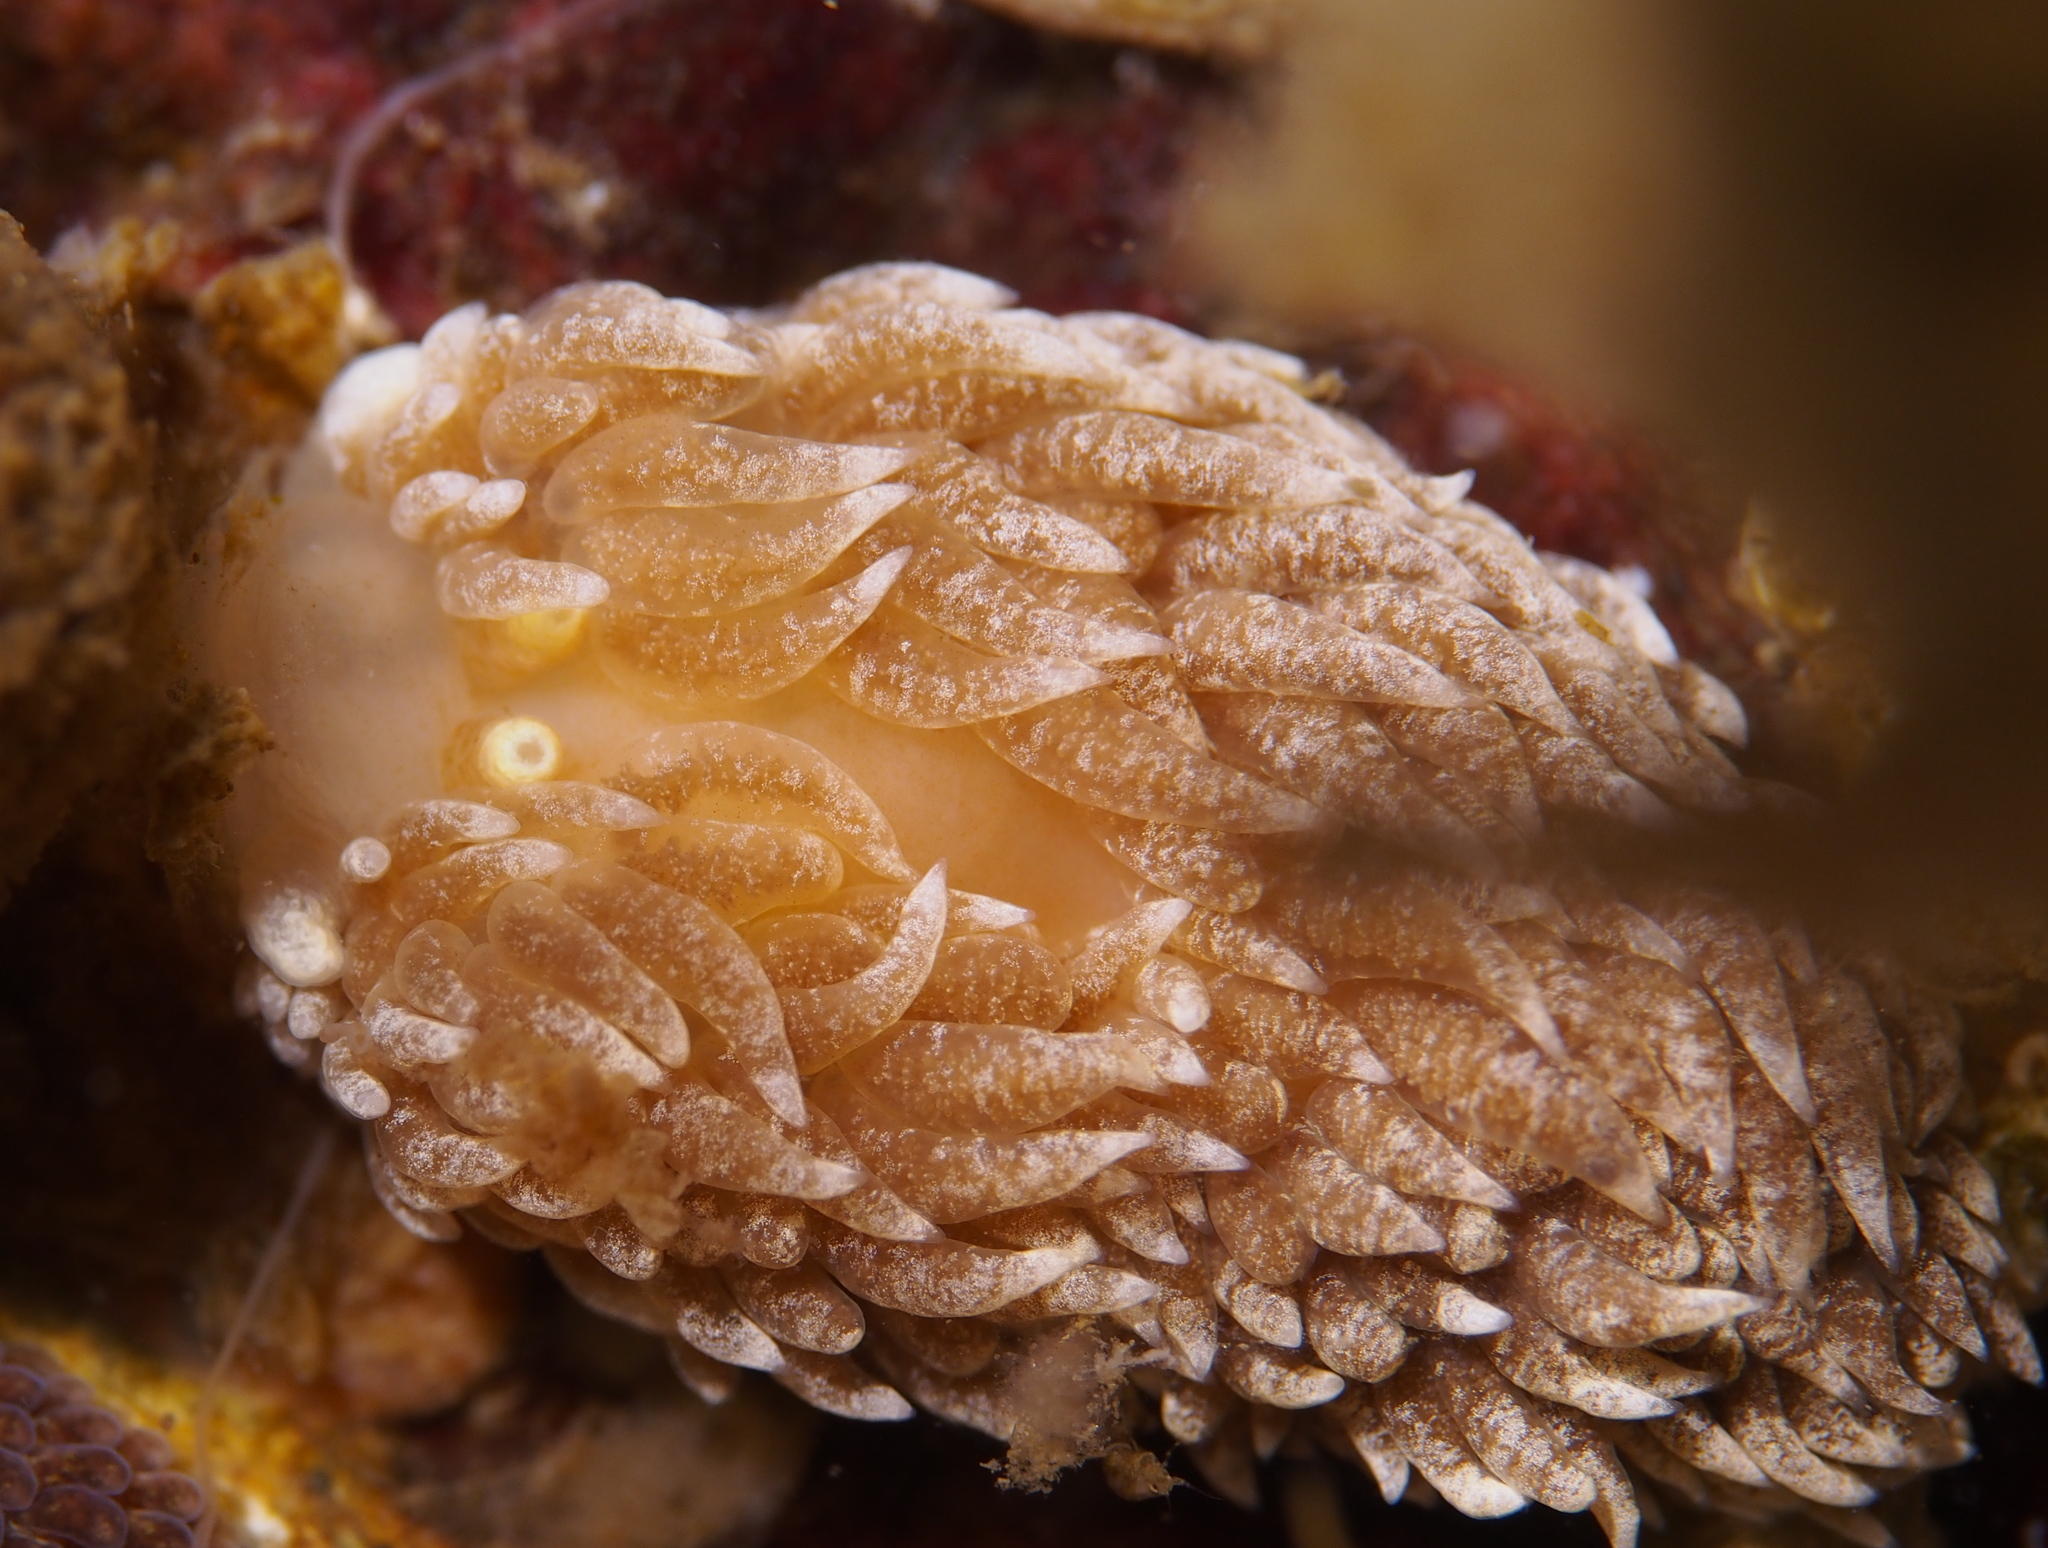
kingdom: Animalia
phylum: Mollusca
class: Gastropoda
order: Nudibranchia
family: Aeolidiidae
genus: Aeolidiella
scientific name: Aeolidiella glauca
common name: Orange-brown aeolid
